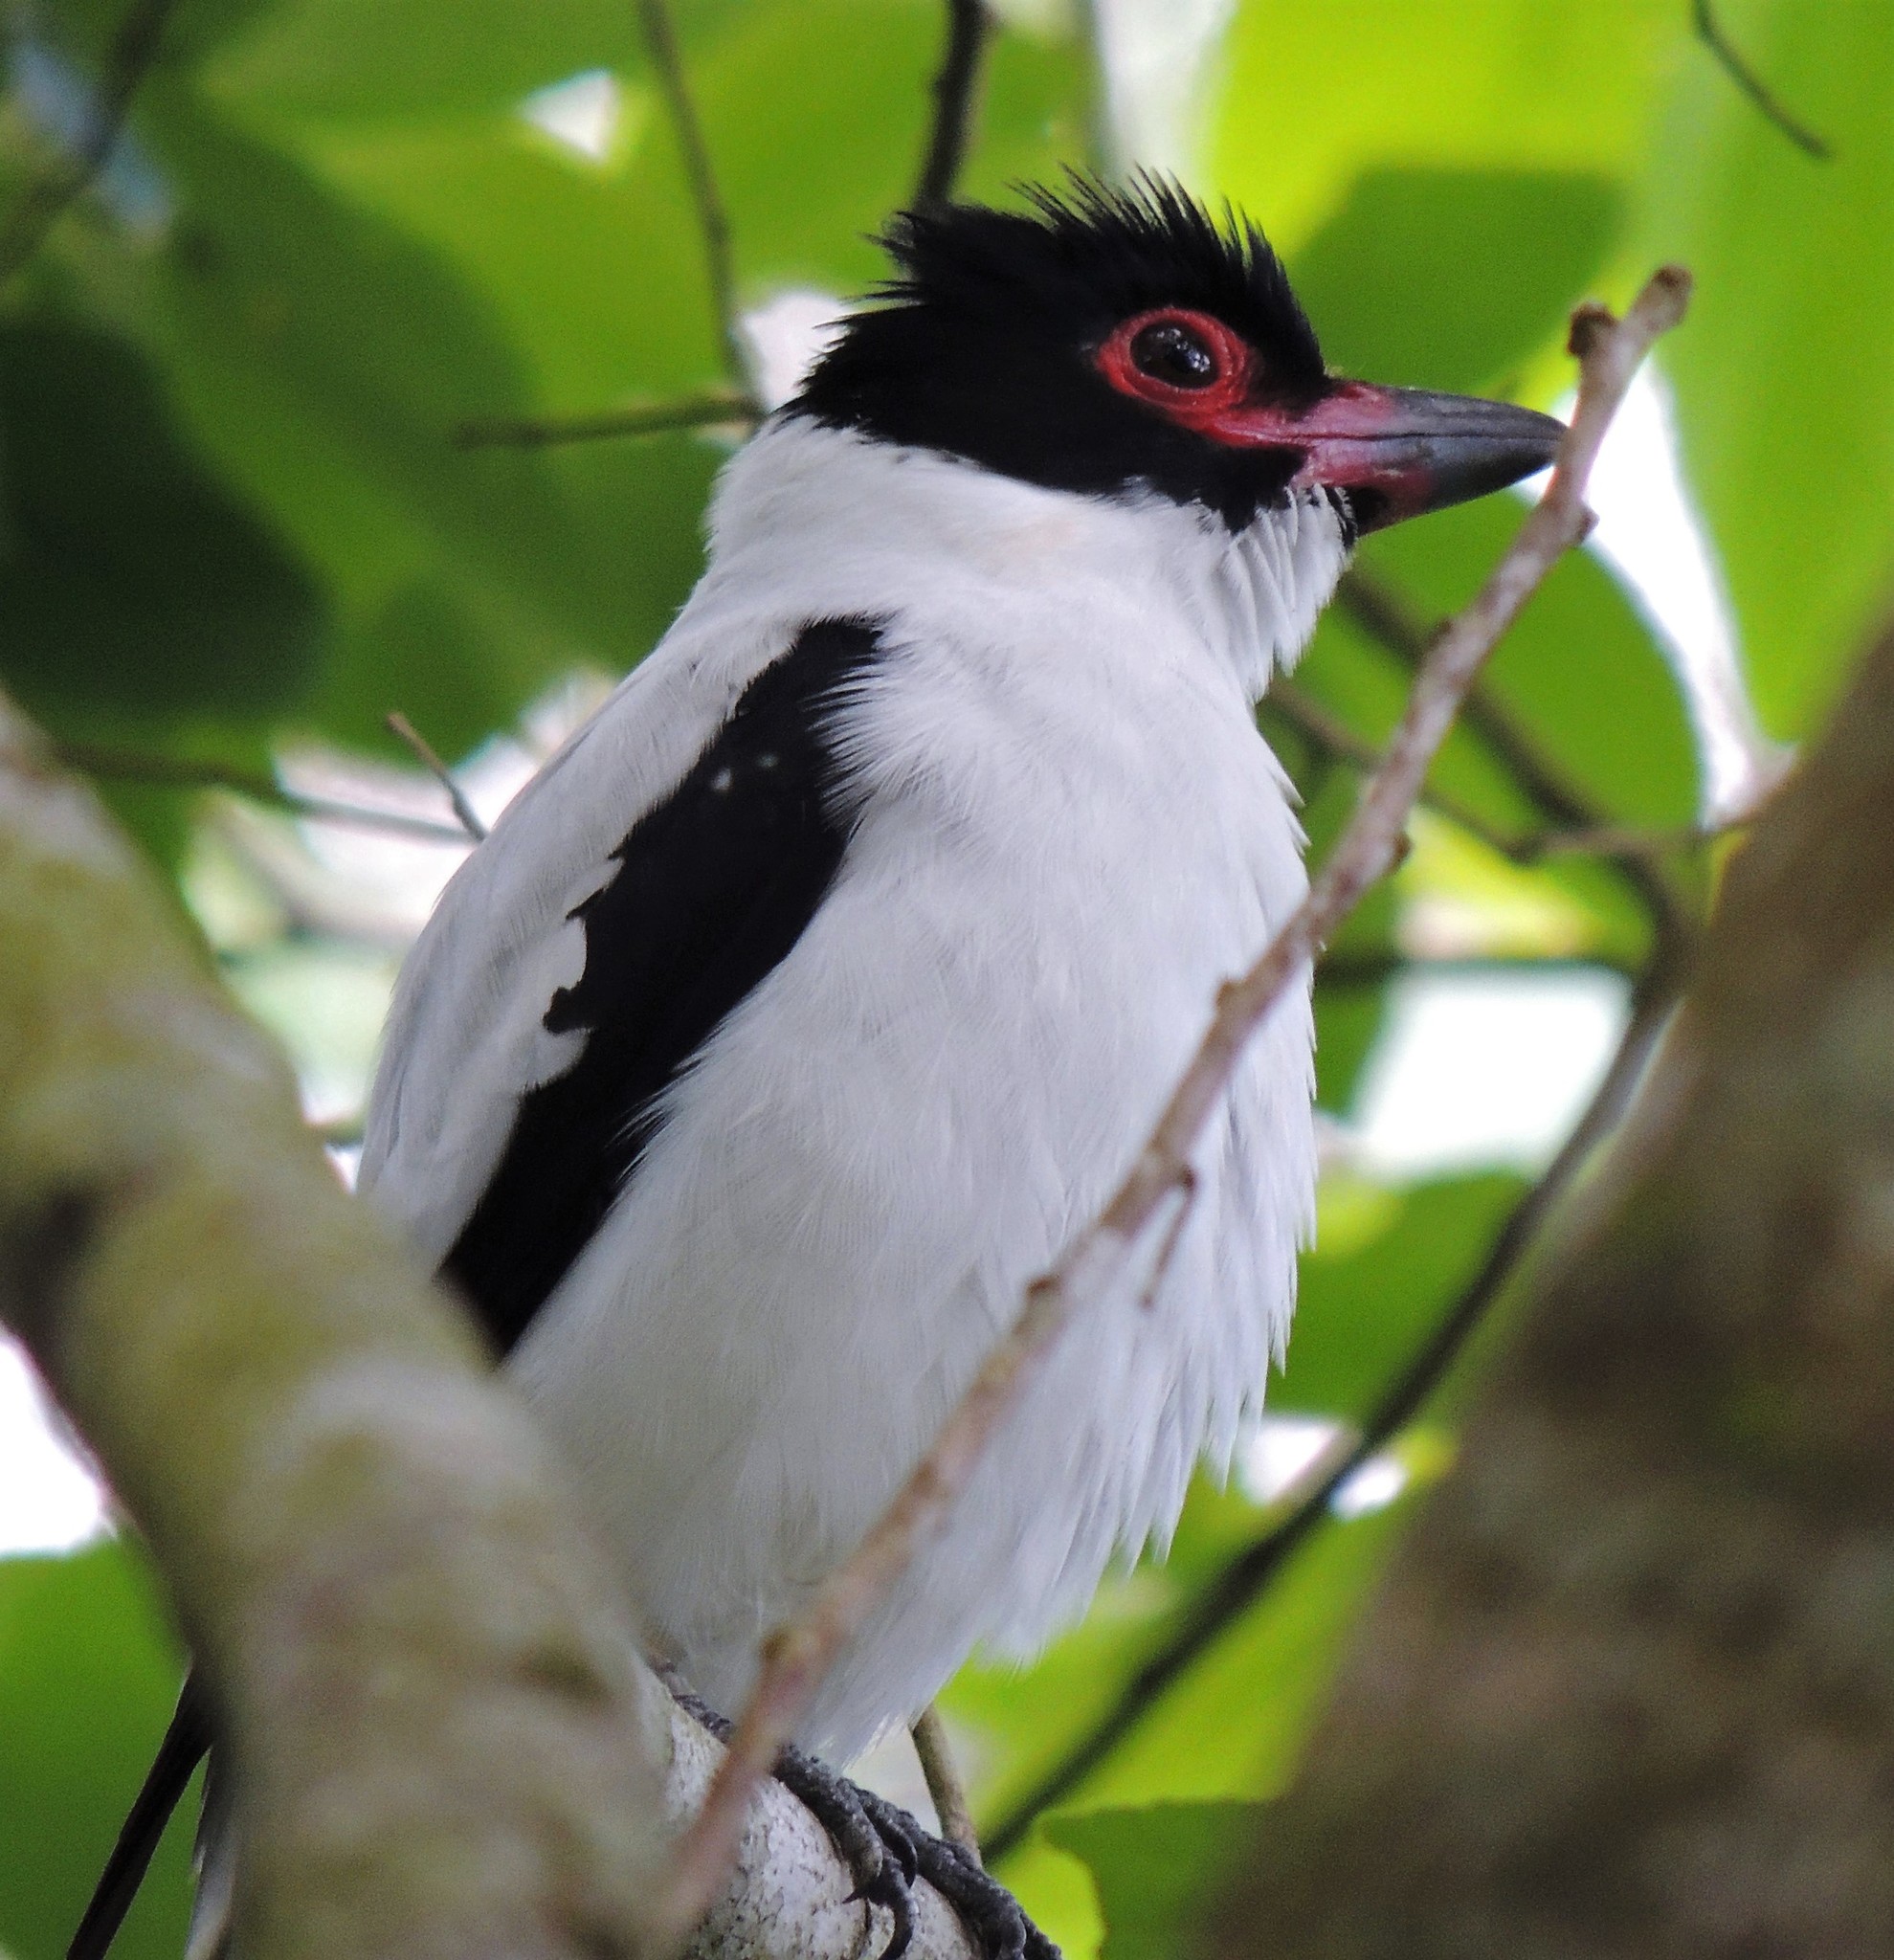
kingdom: Animalia
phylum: Chordata
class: Aves
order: Passeriformes
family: Cotingidae
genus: Tityra
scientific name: Tityra cayana
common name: Black-tailed tityra
